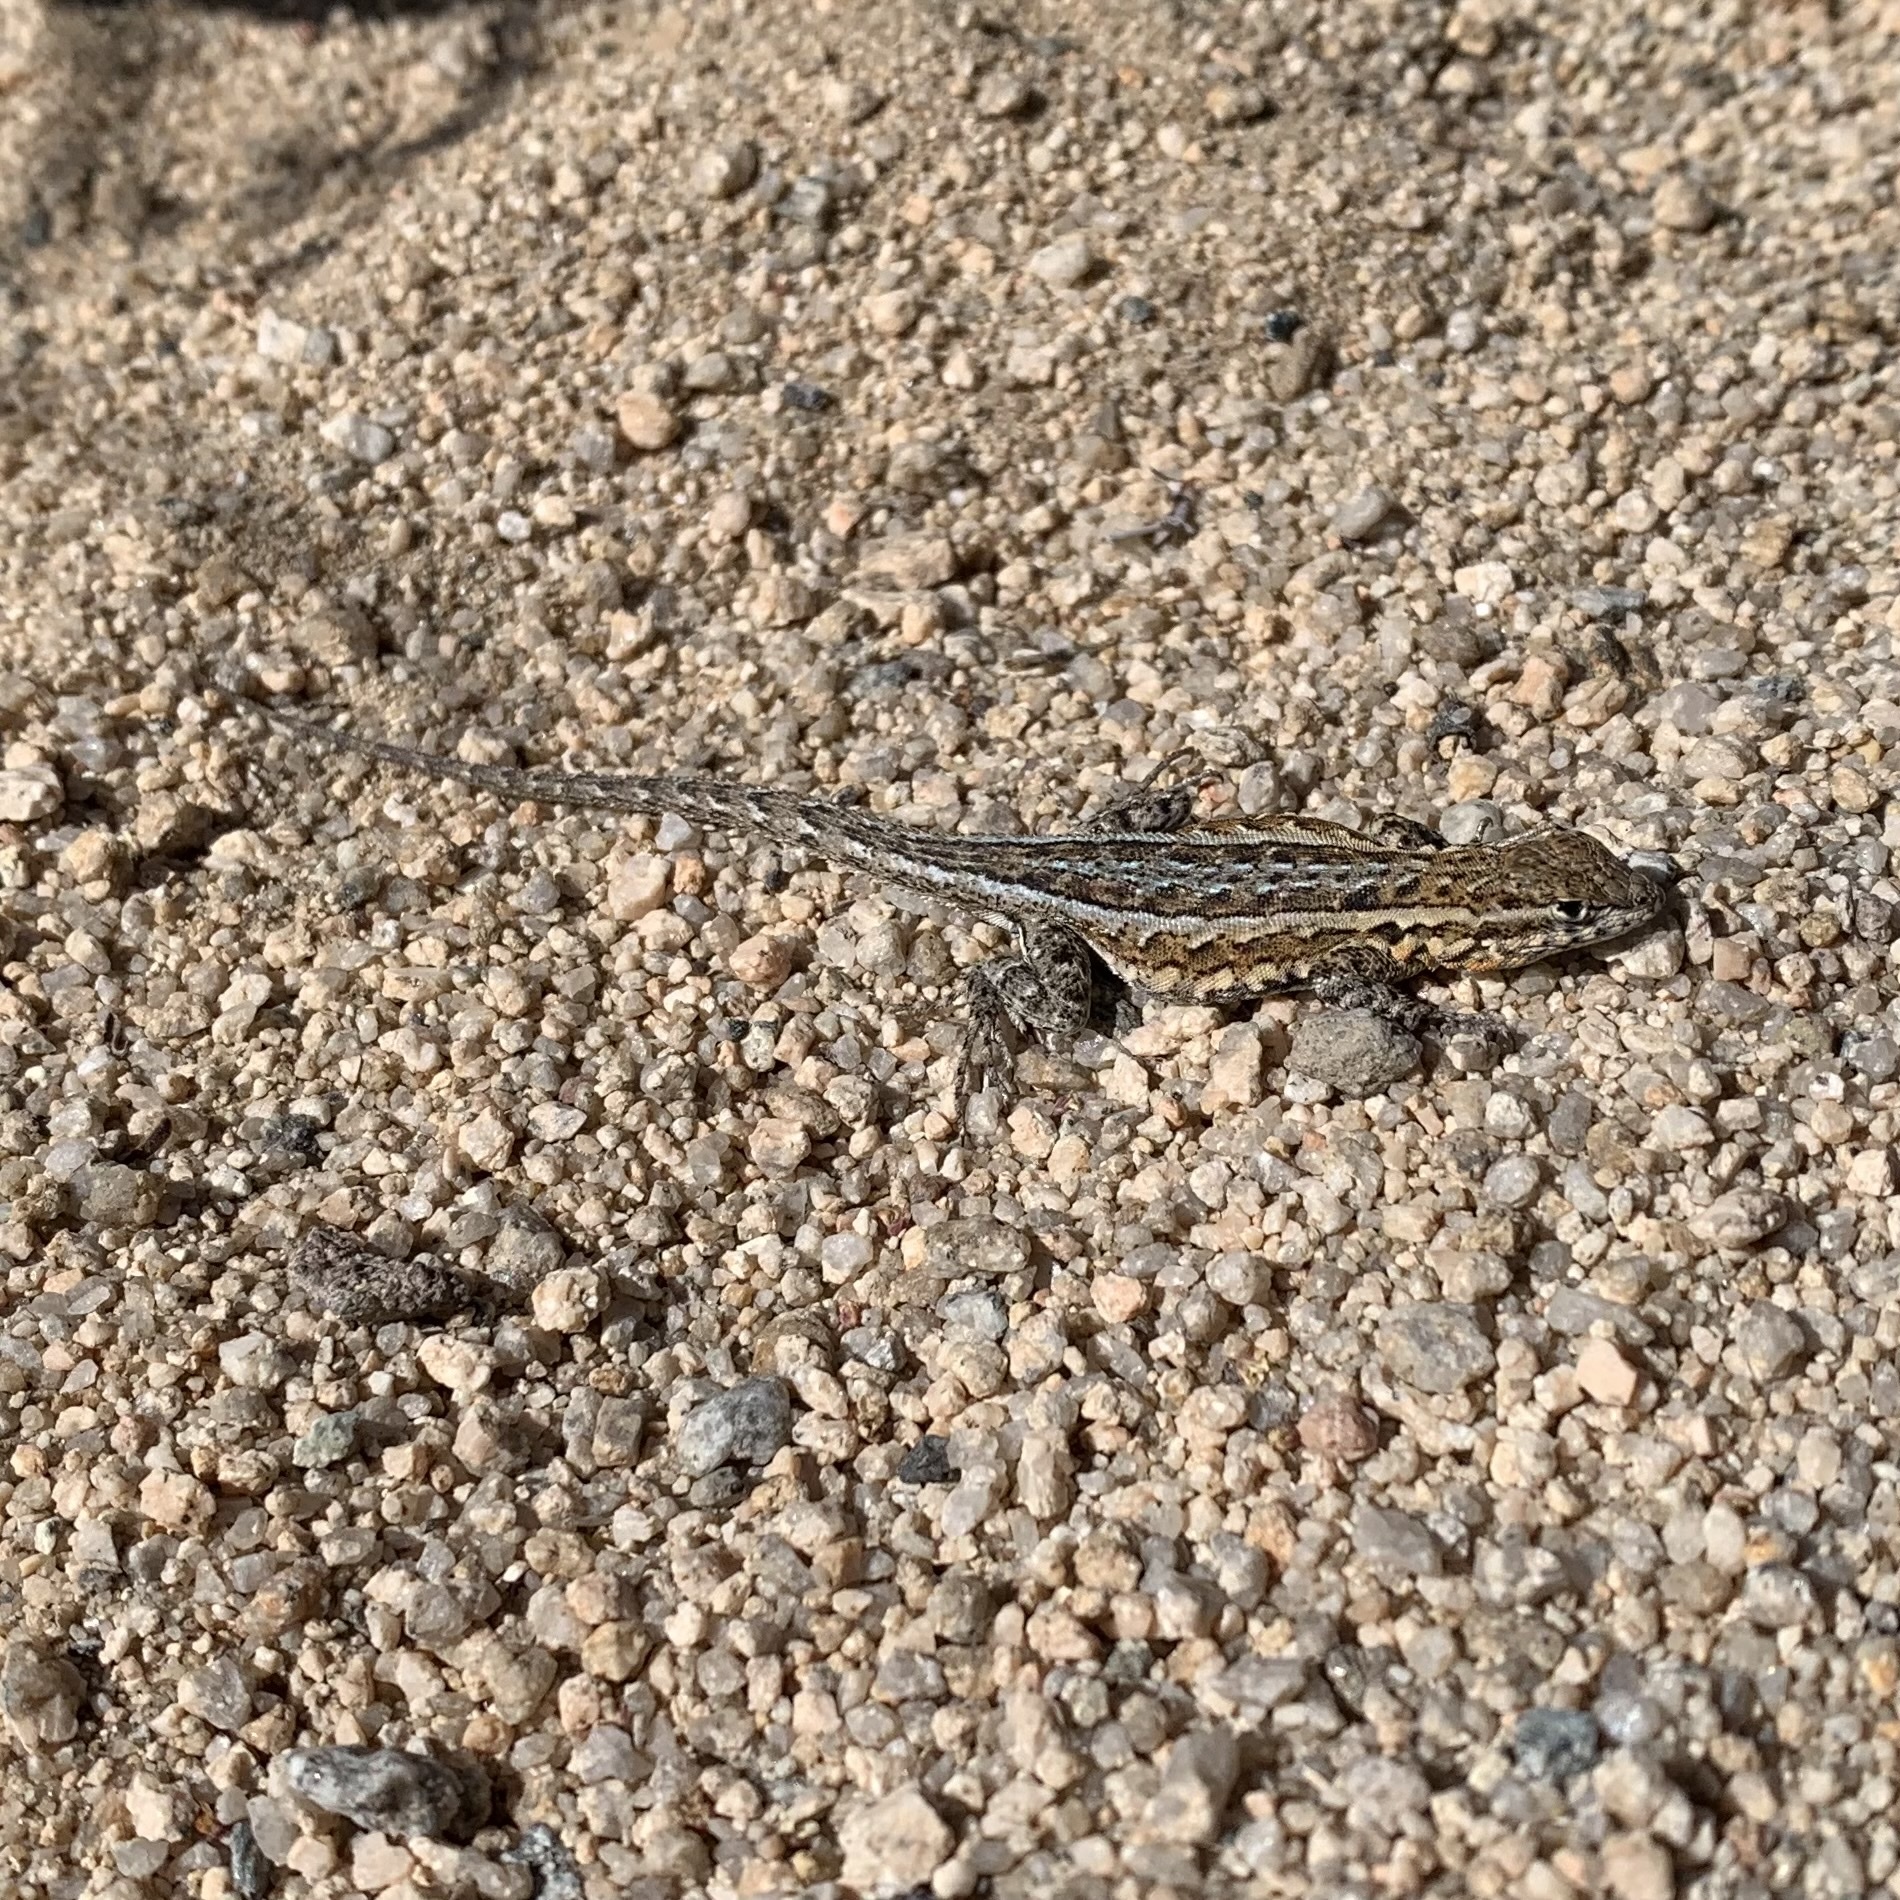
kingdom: Animalia
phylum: Chordata
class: Squamata
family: Phrynosomatidae
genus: Uta
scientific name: Uta stansburiana
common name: Side-blotched lizard
